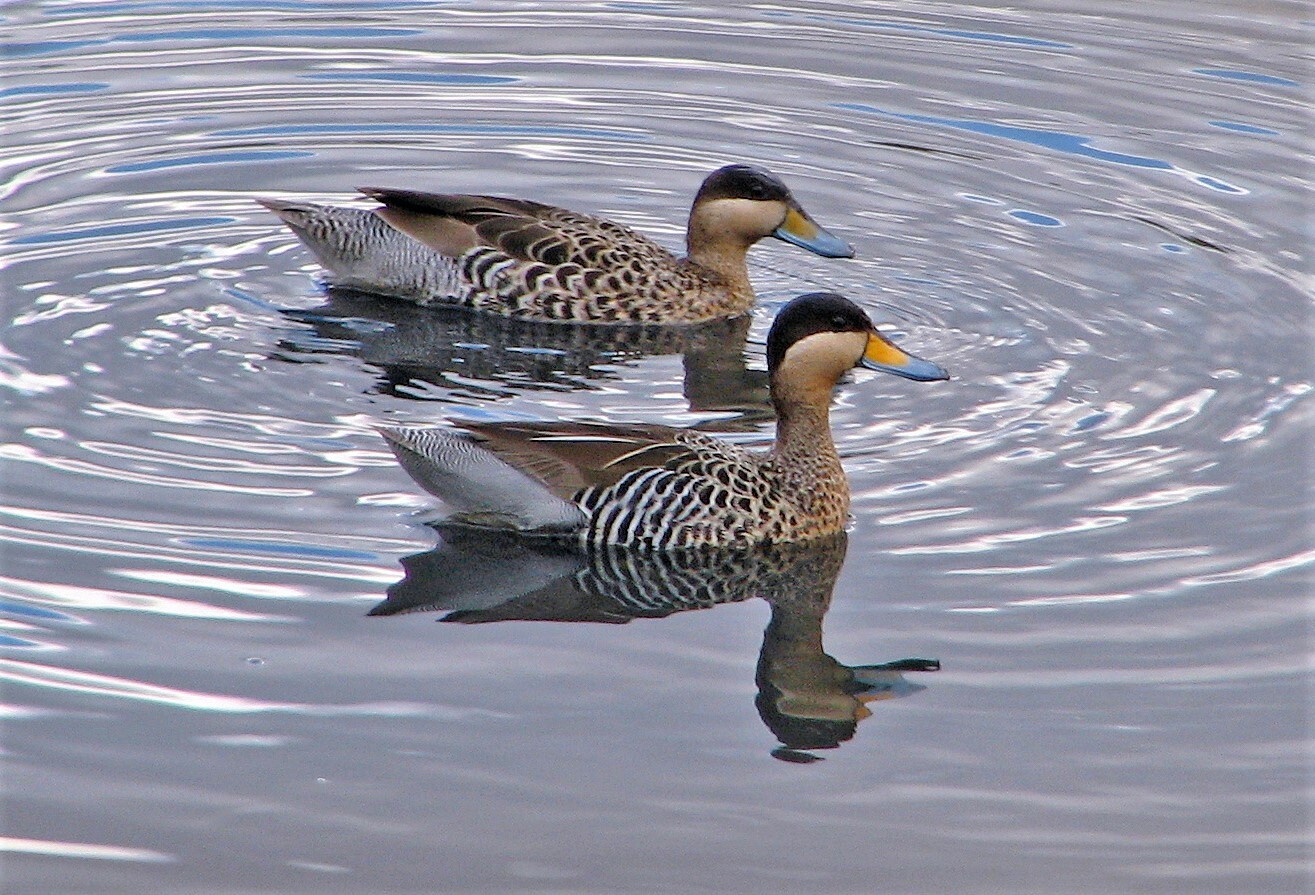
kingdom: Animalia
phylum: Chordata
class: Aves
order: Anseriformes
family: Anatidae
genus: Spatula
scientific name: Spatula versicolor
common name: Silver teal
